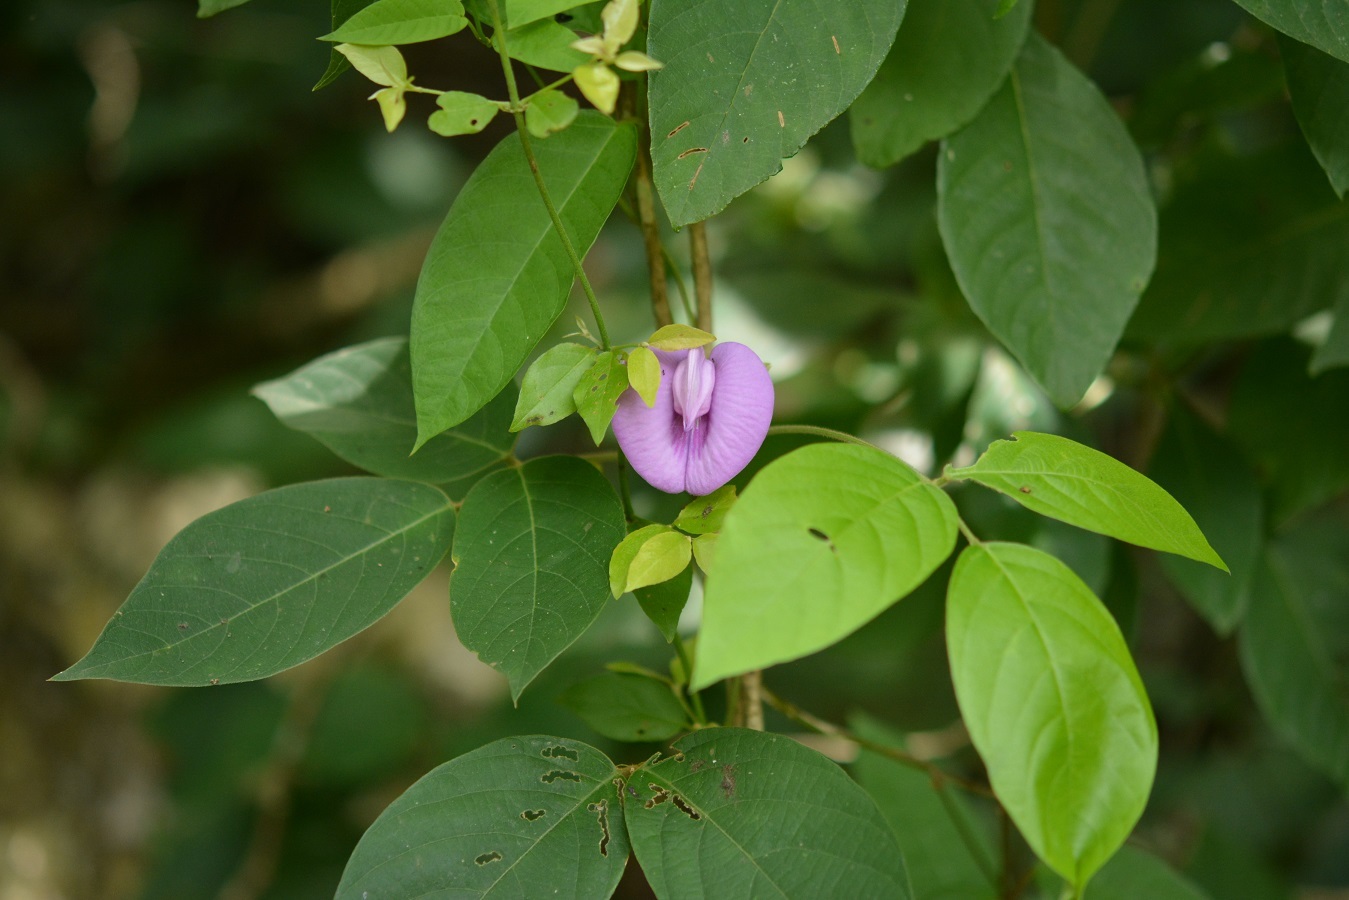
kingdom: Plantae
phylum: Tracheophyta
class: Magnoliopsida
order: Fabales
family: Fabaceae
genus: Centrosema
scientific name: Centrosema virginianum
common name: Butterfly-pea
